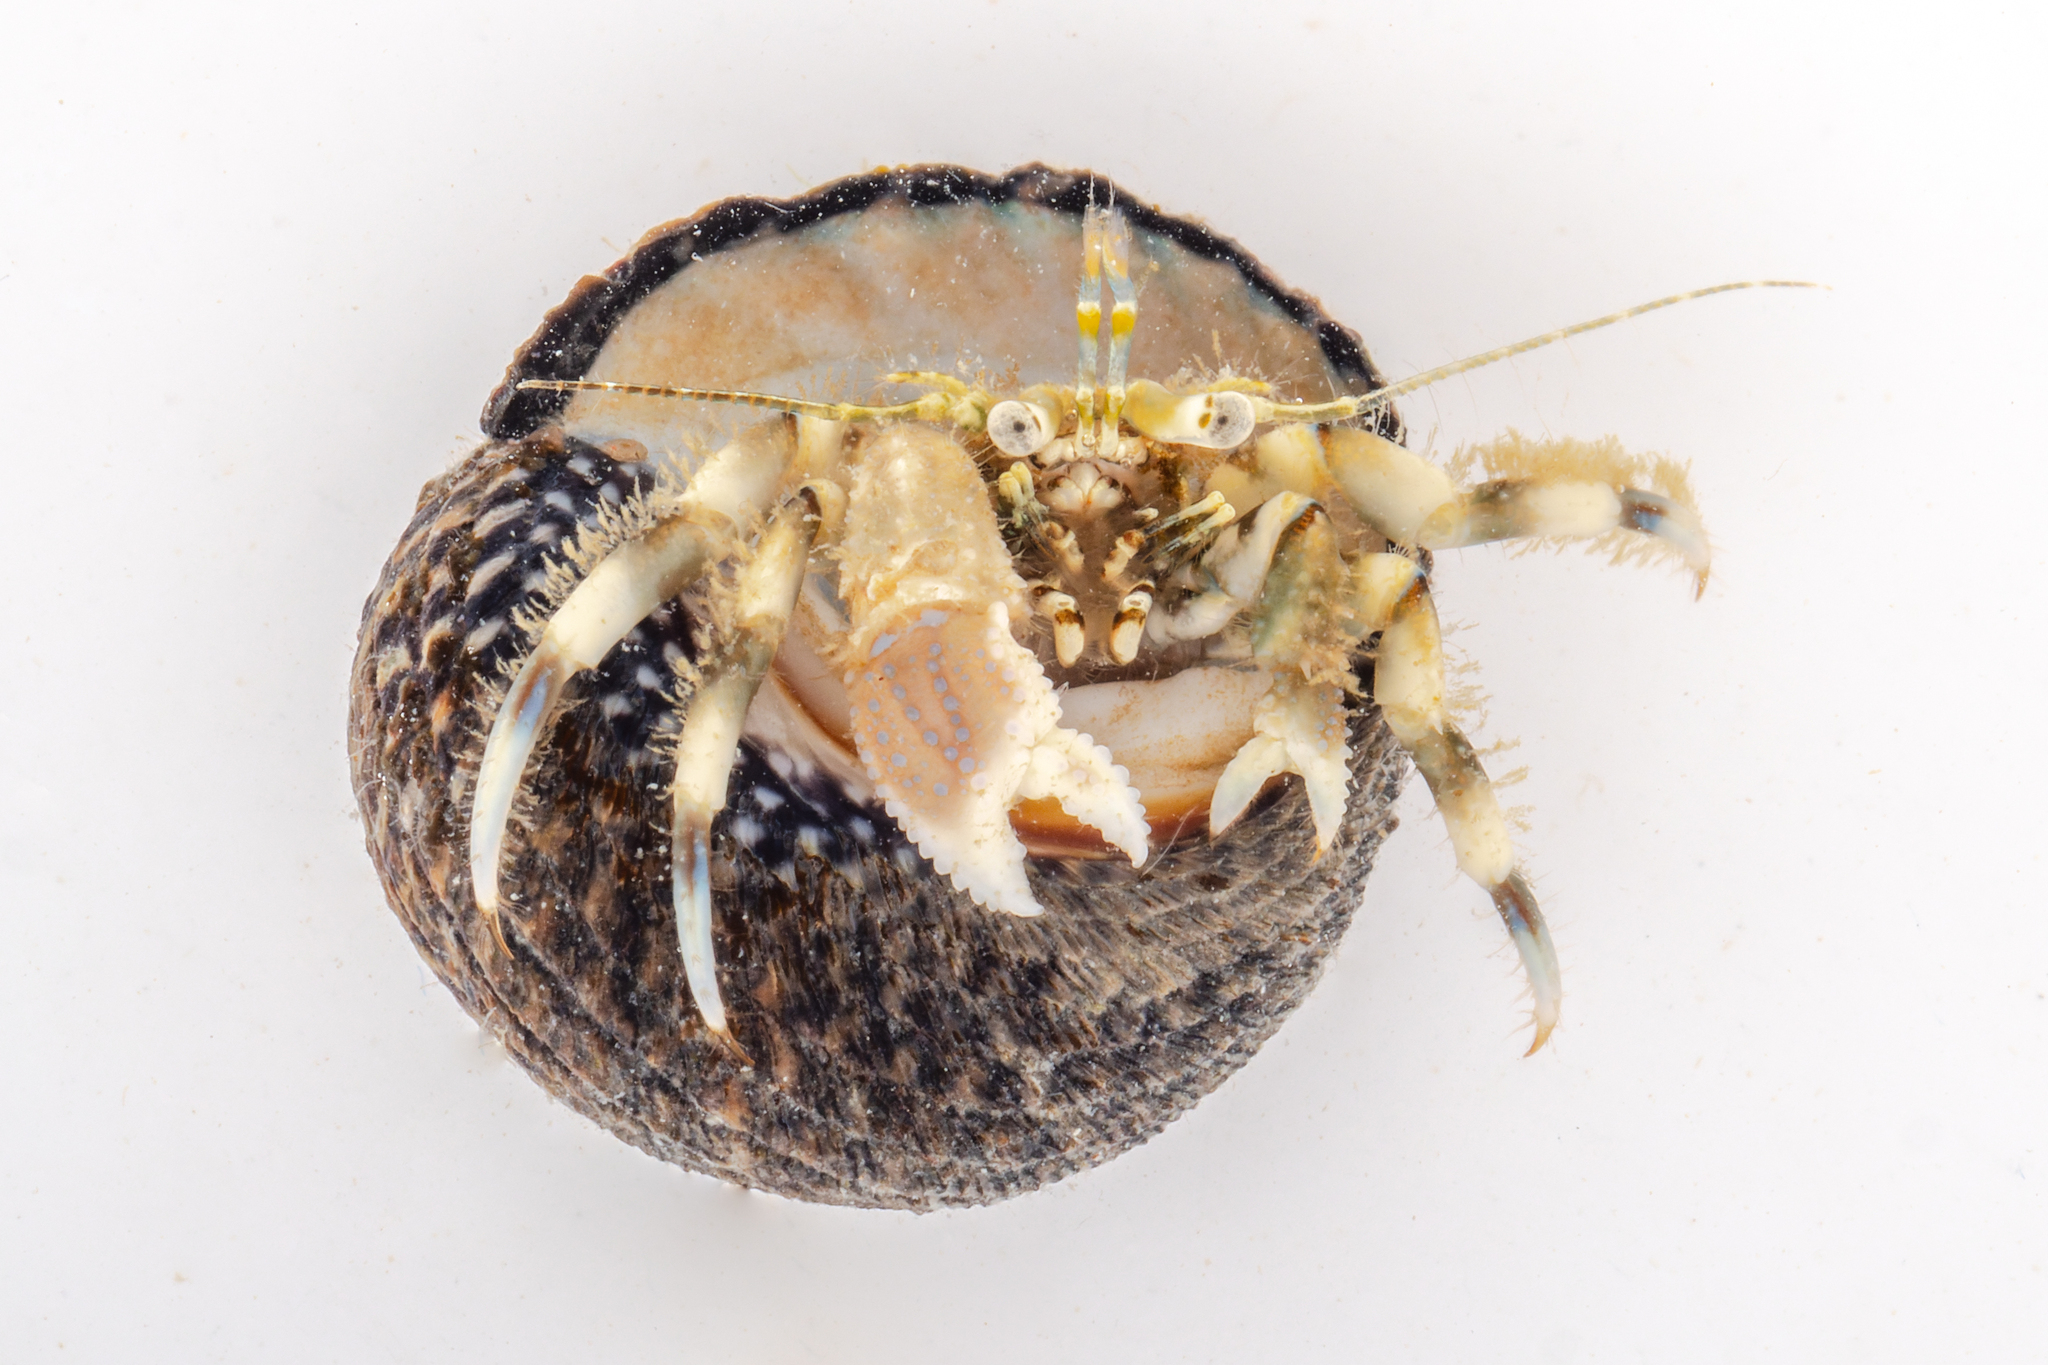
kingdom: Animalia
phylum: Arthropoda
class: Malacostraca
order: Decapoda
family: Paguridae
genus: Pagurus
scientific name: Pagurus novizealandiae
